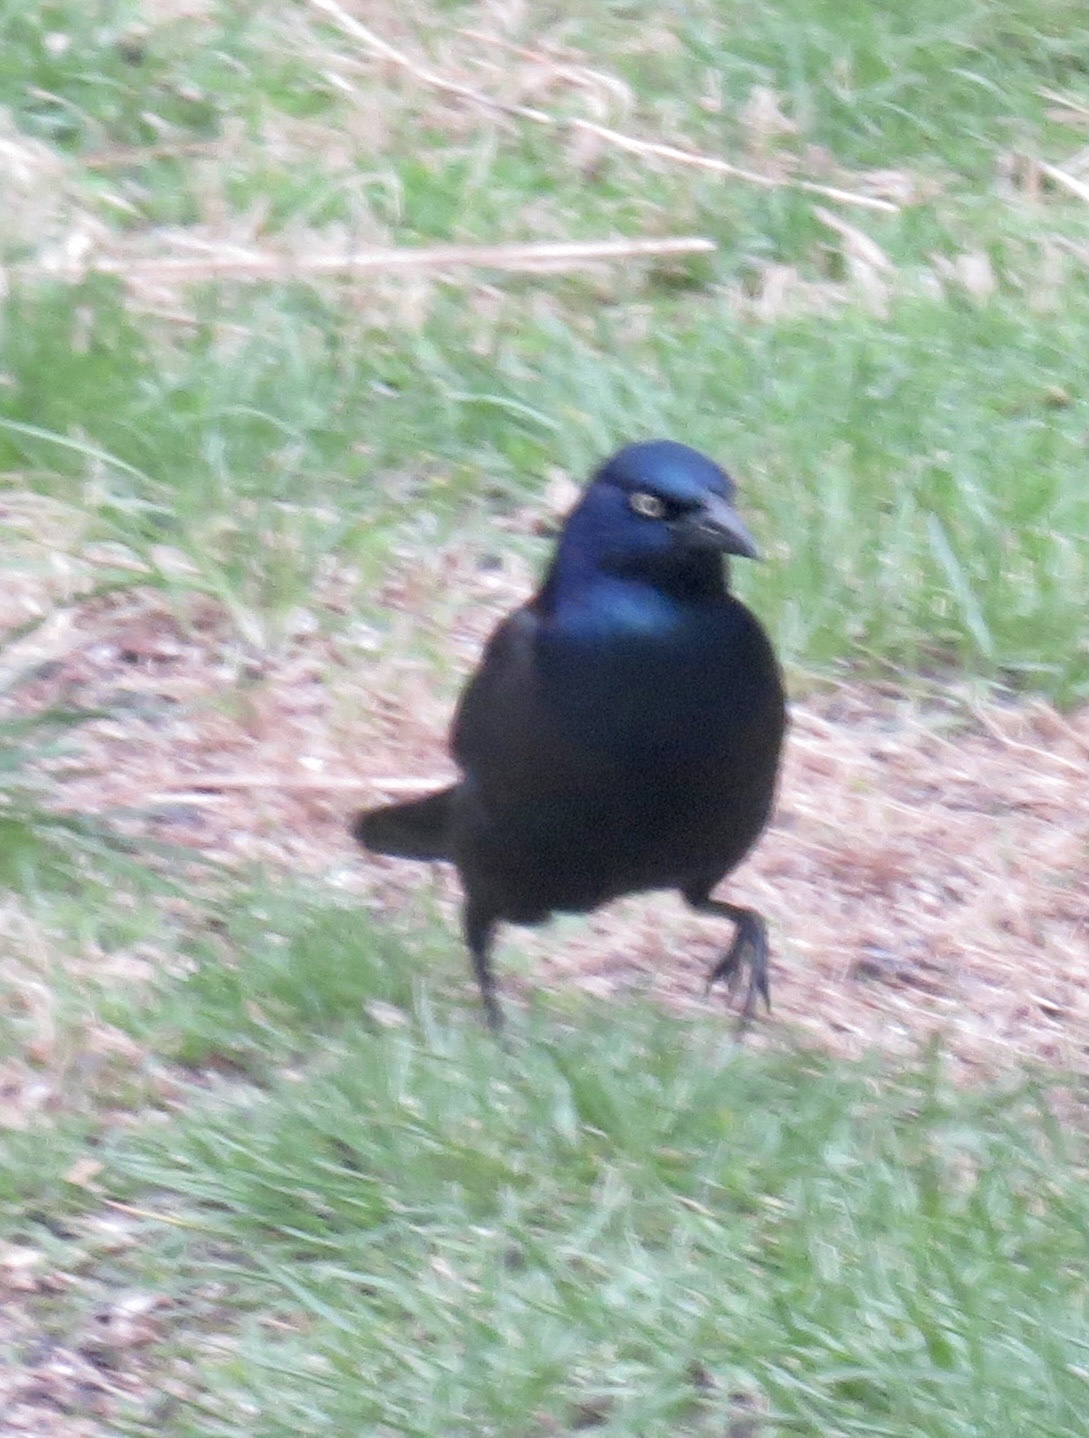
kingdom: Animalia
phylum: Chordata
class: Aves
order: Passeriformes
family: Icteridae
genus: Quiscalus
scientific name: Quiscalus quiscula
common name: Common grackle
